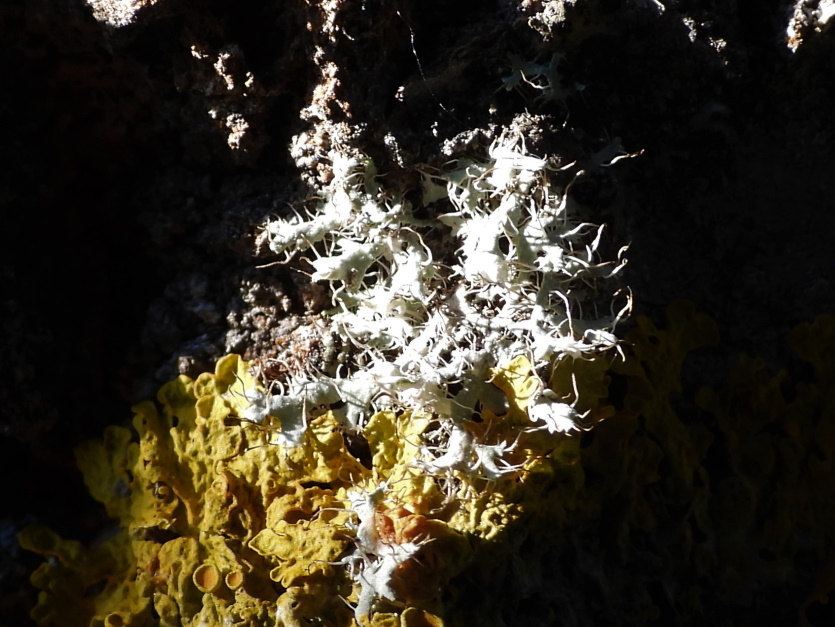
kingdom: Fungi
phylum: Ascomycota
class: Lecanoromycetes
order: Caliciales
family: Physciaceae
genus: Physcia
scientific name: Physcia adscendens
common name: Hooded rosette lichen
